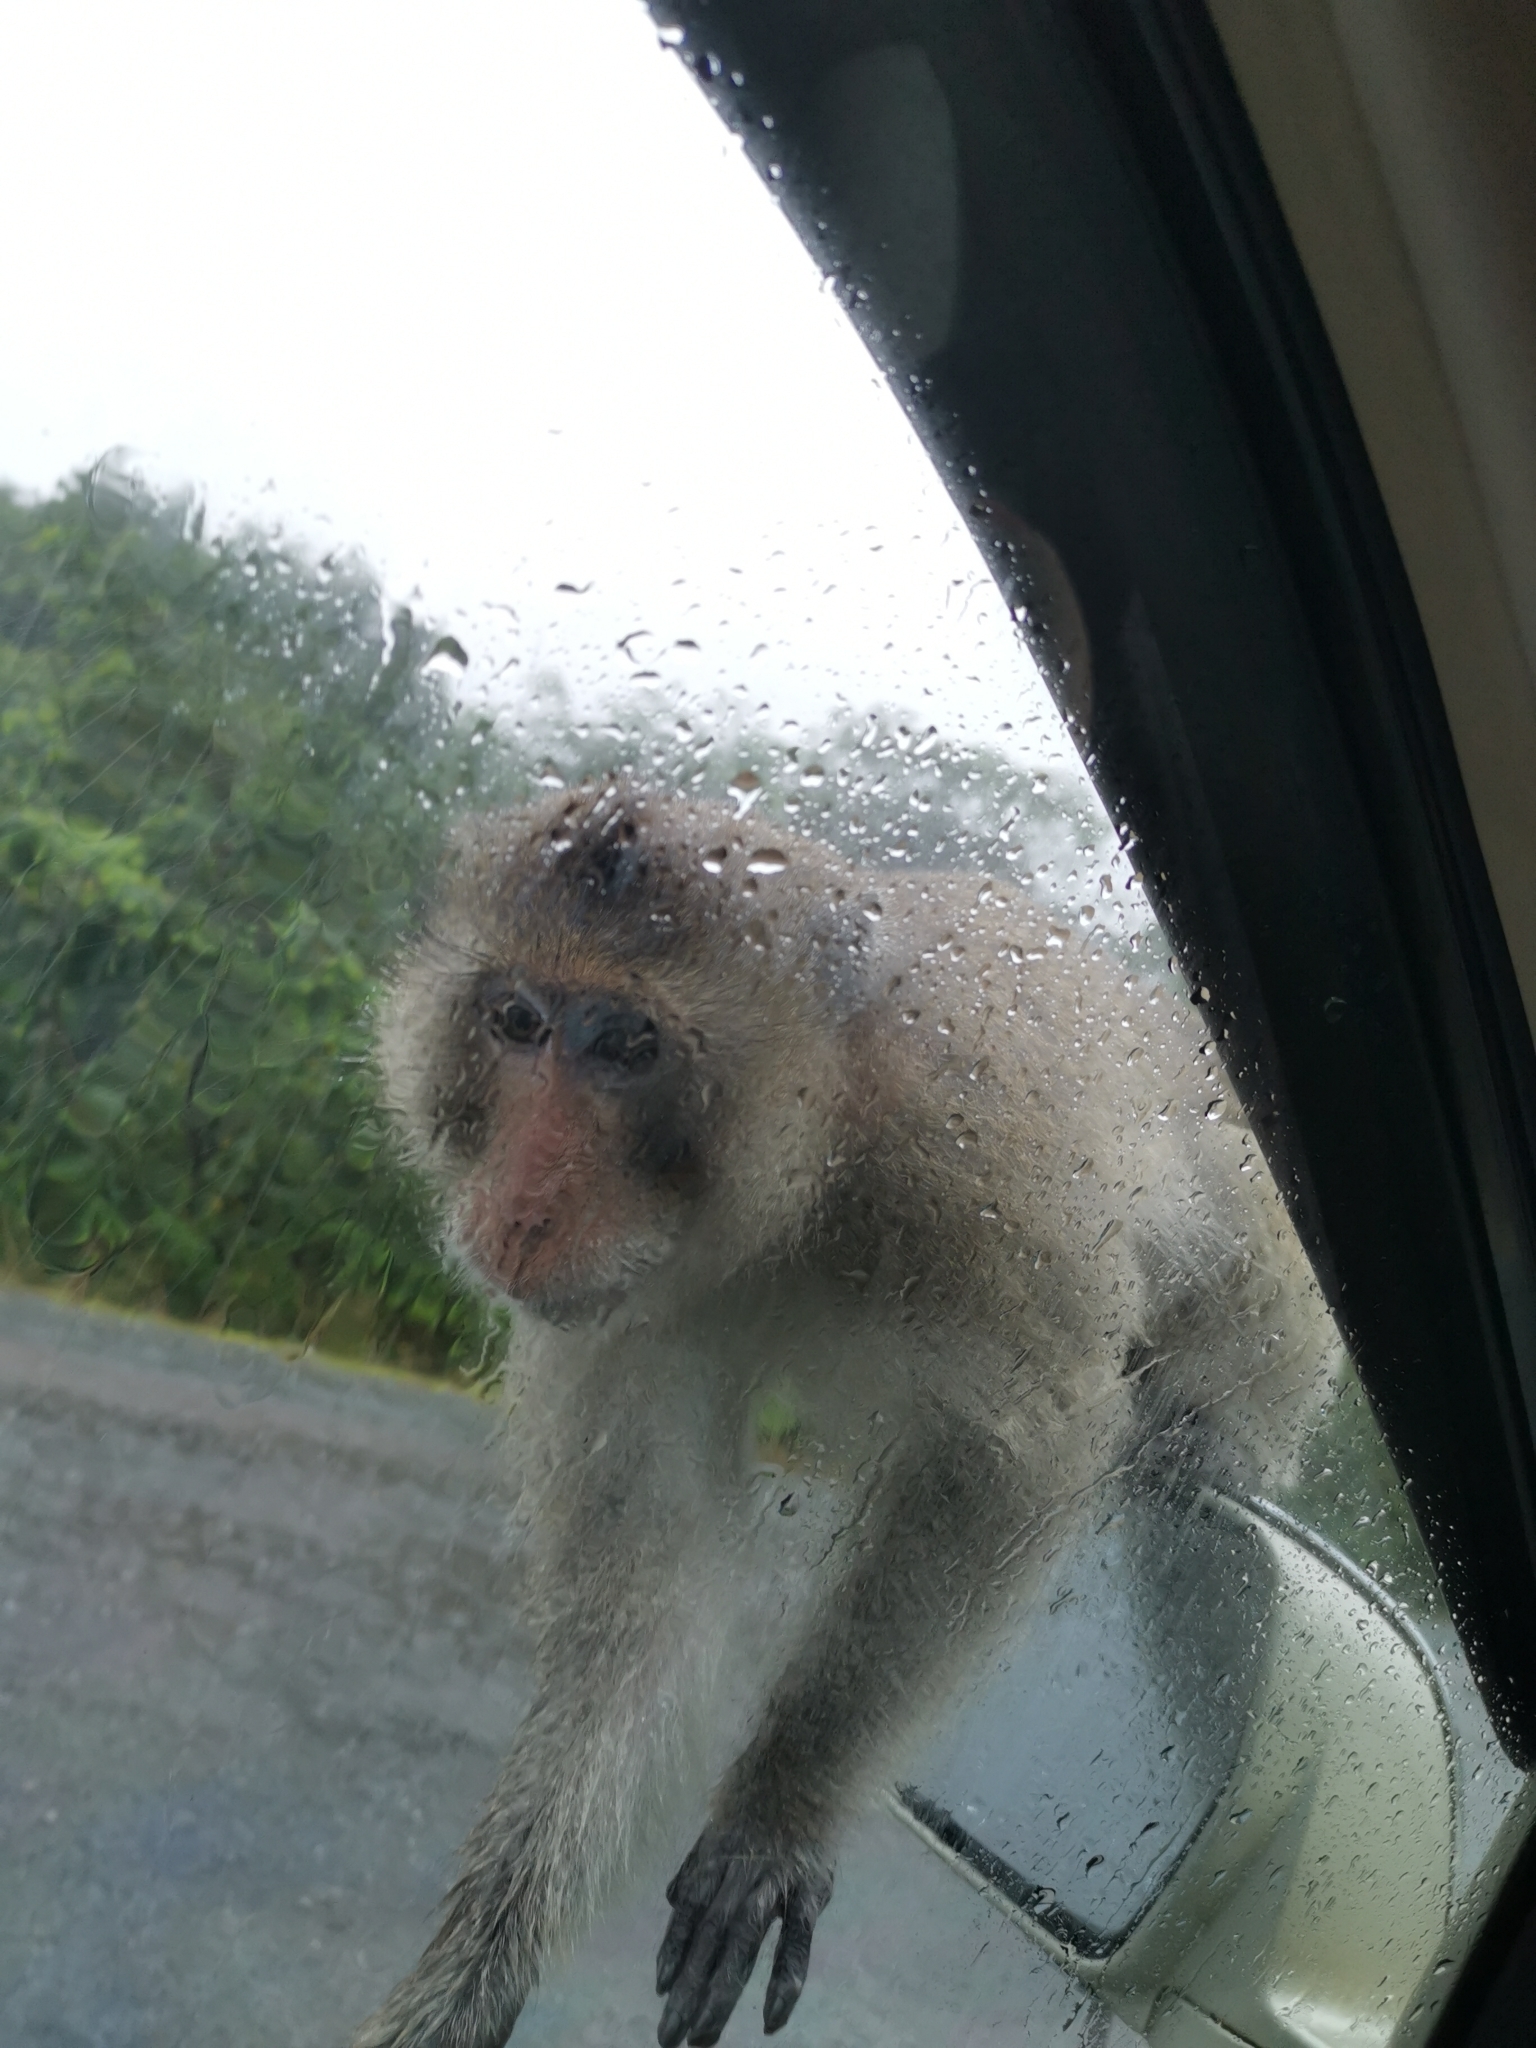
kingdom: Animalia
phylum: Chordata
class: Mammalia
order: Primates
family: Cercopithecidae
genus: Macaca
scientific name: Macaca leonina
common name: Northern pig-tailed macaque
